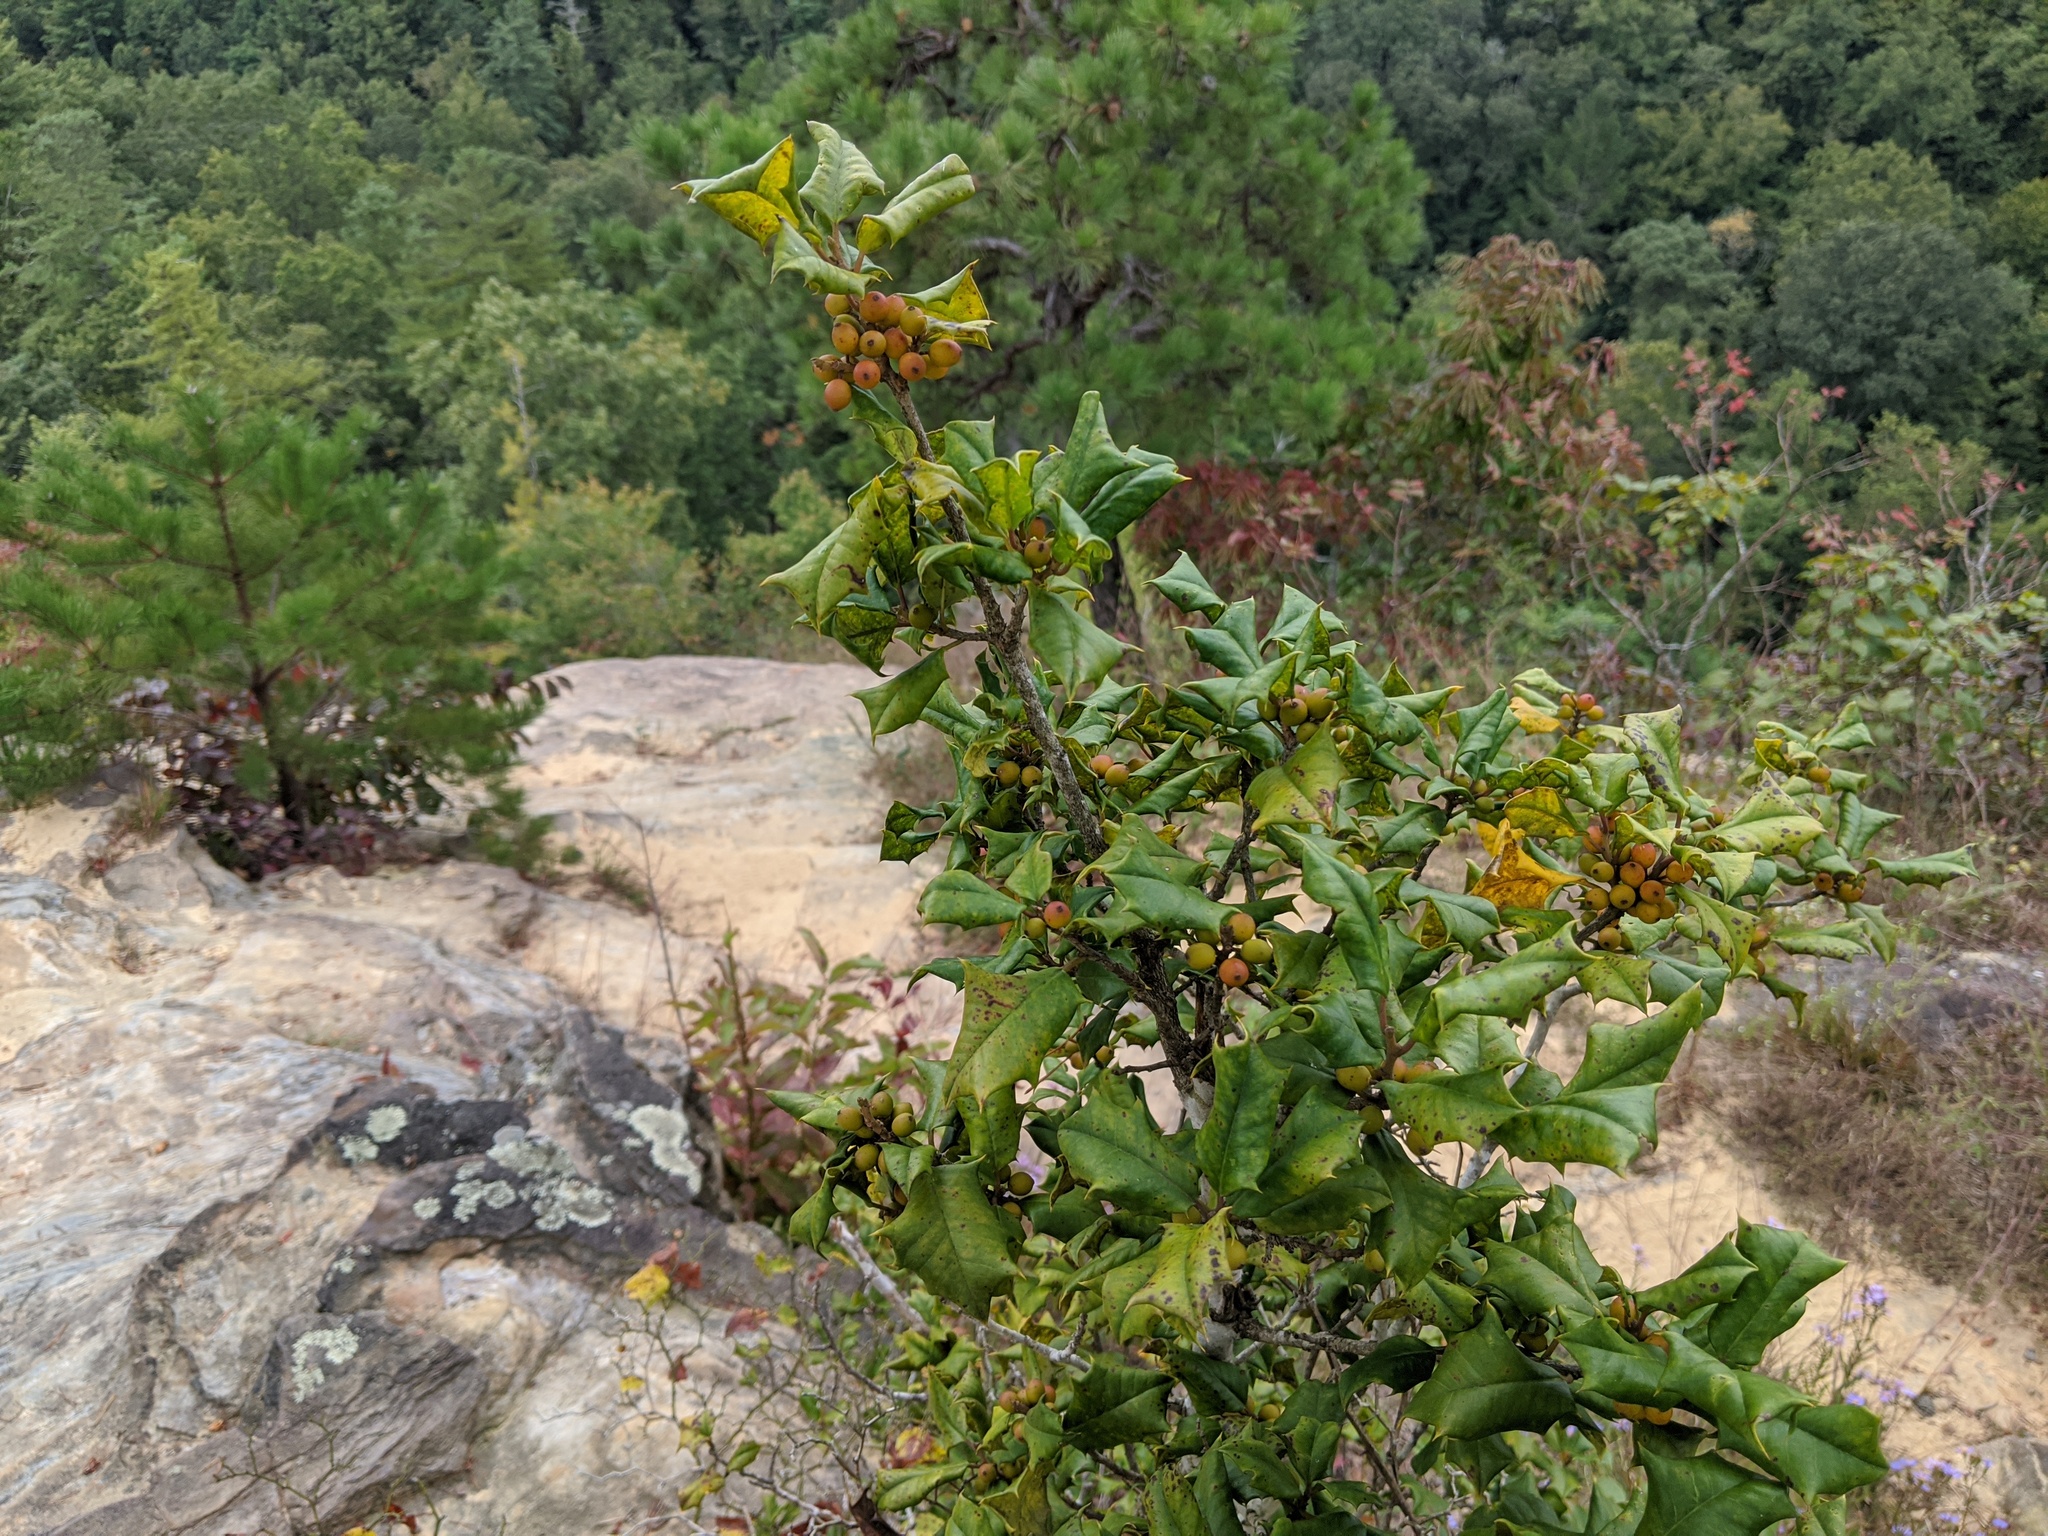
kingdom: Plantae
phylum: Tracheophyta
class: Magnoliopsida
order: Aquifoliales
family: Aquifoliaceae
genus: Ilex
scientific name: Ilex opaca
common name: American holly
